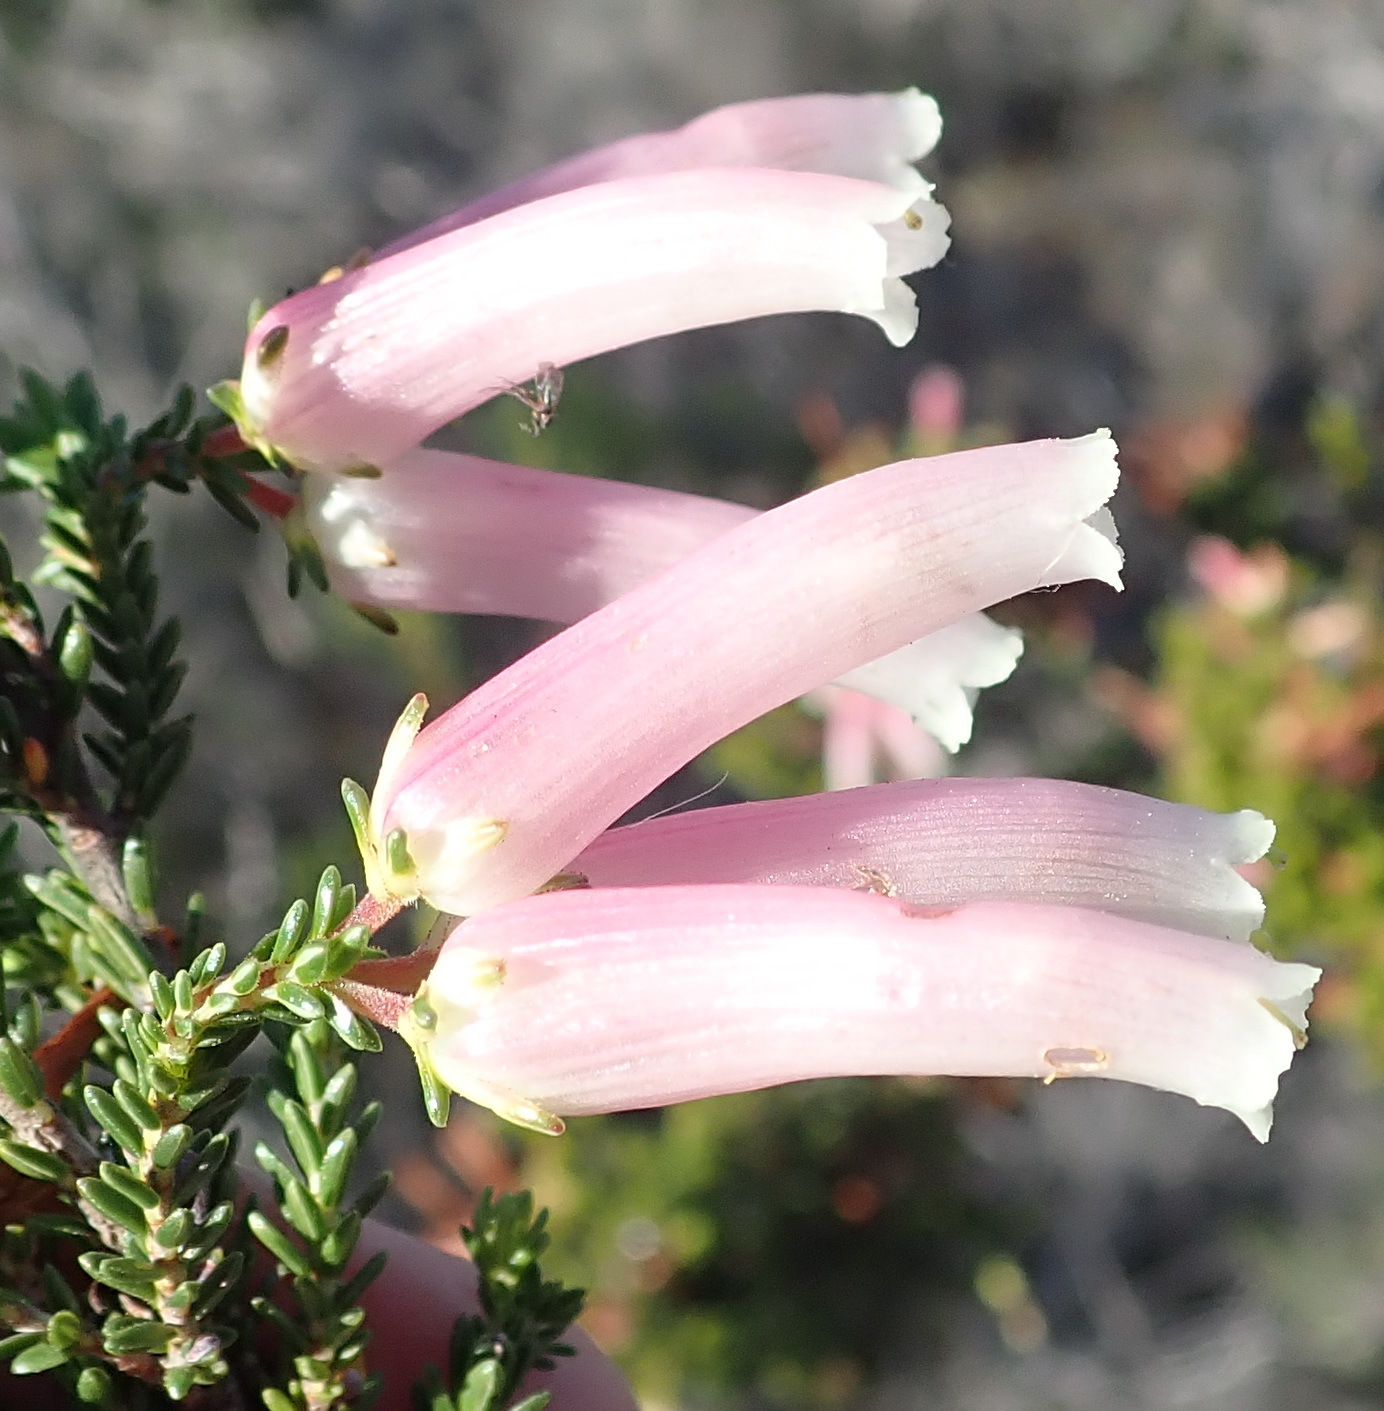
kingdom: Plantae
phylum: Tracheophyta
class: Magnoliopsida
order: Ericales
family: Ericaceae
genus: Erica
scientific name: Erica versicolor
